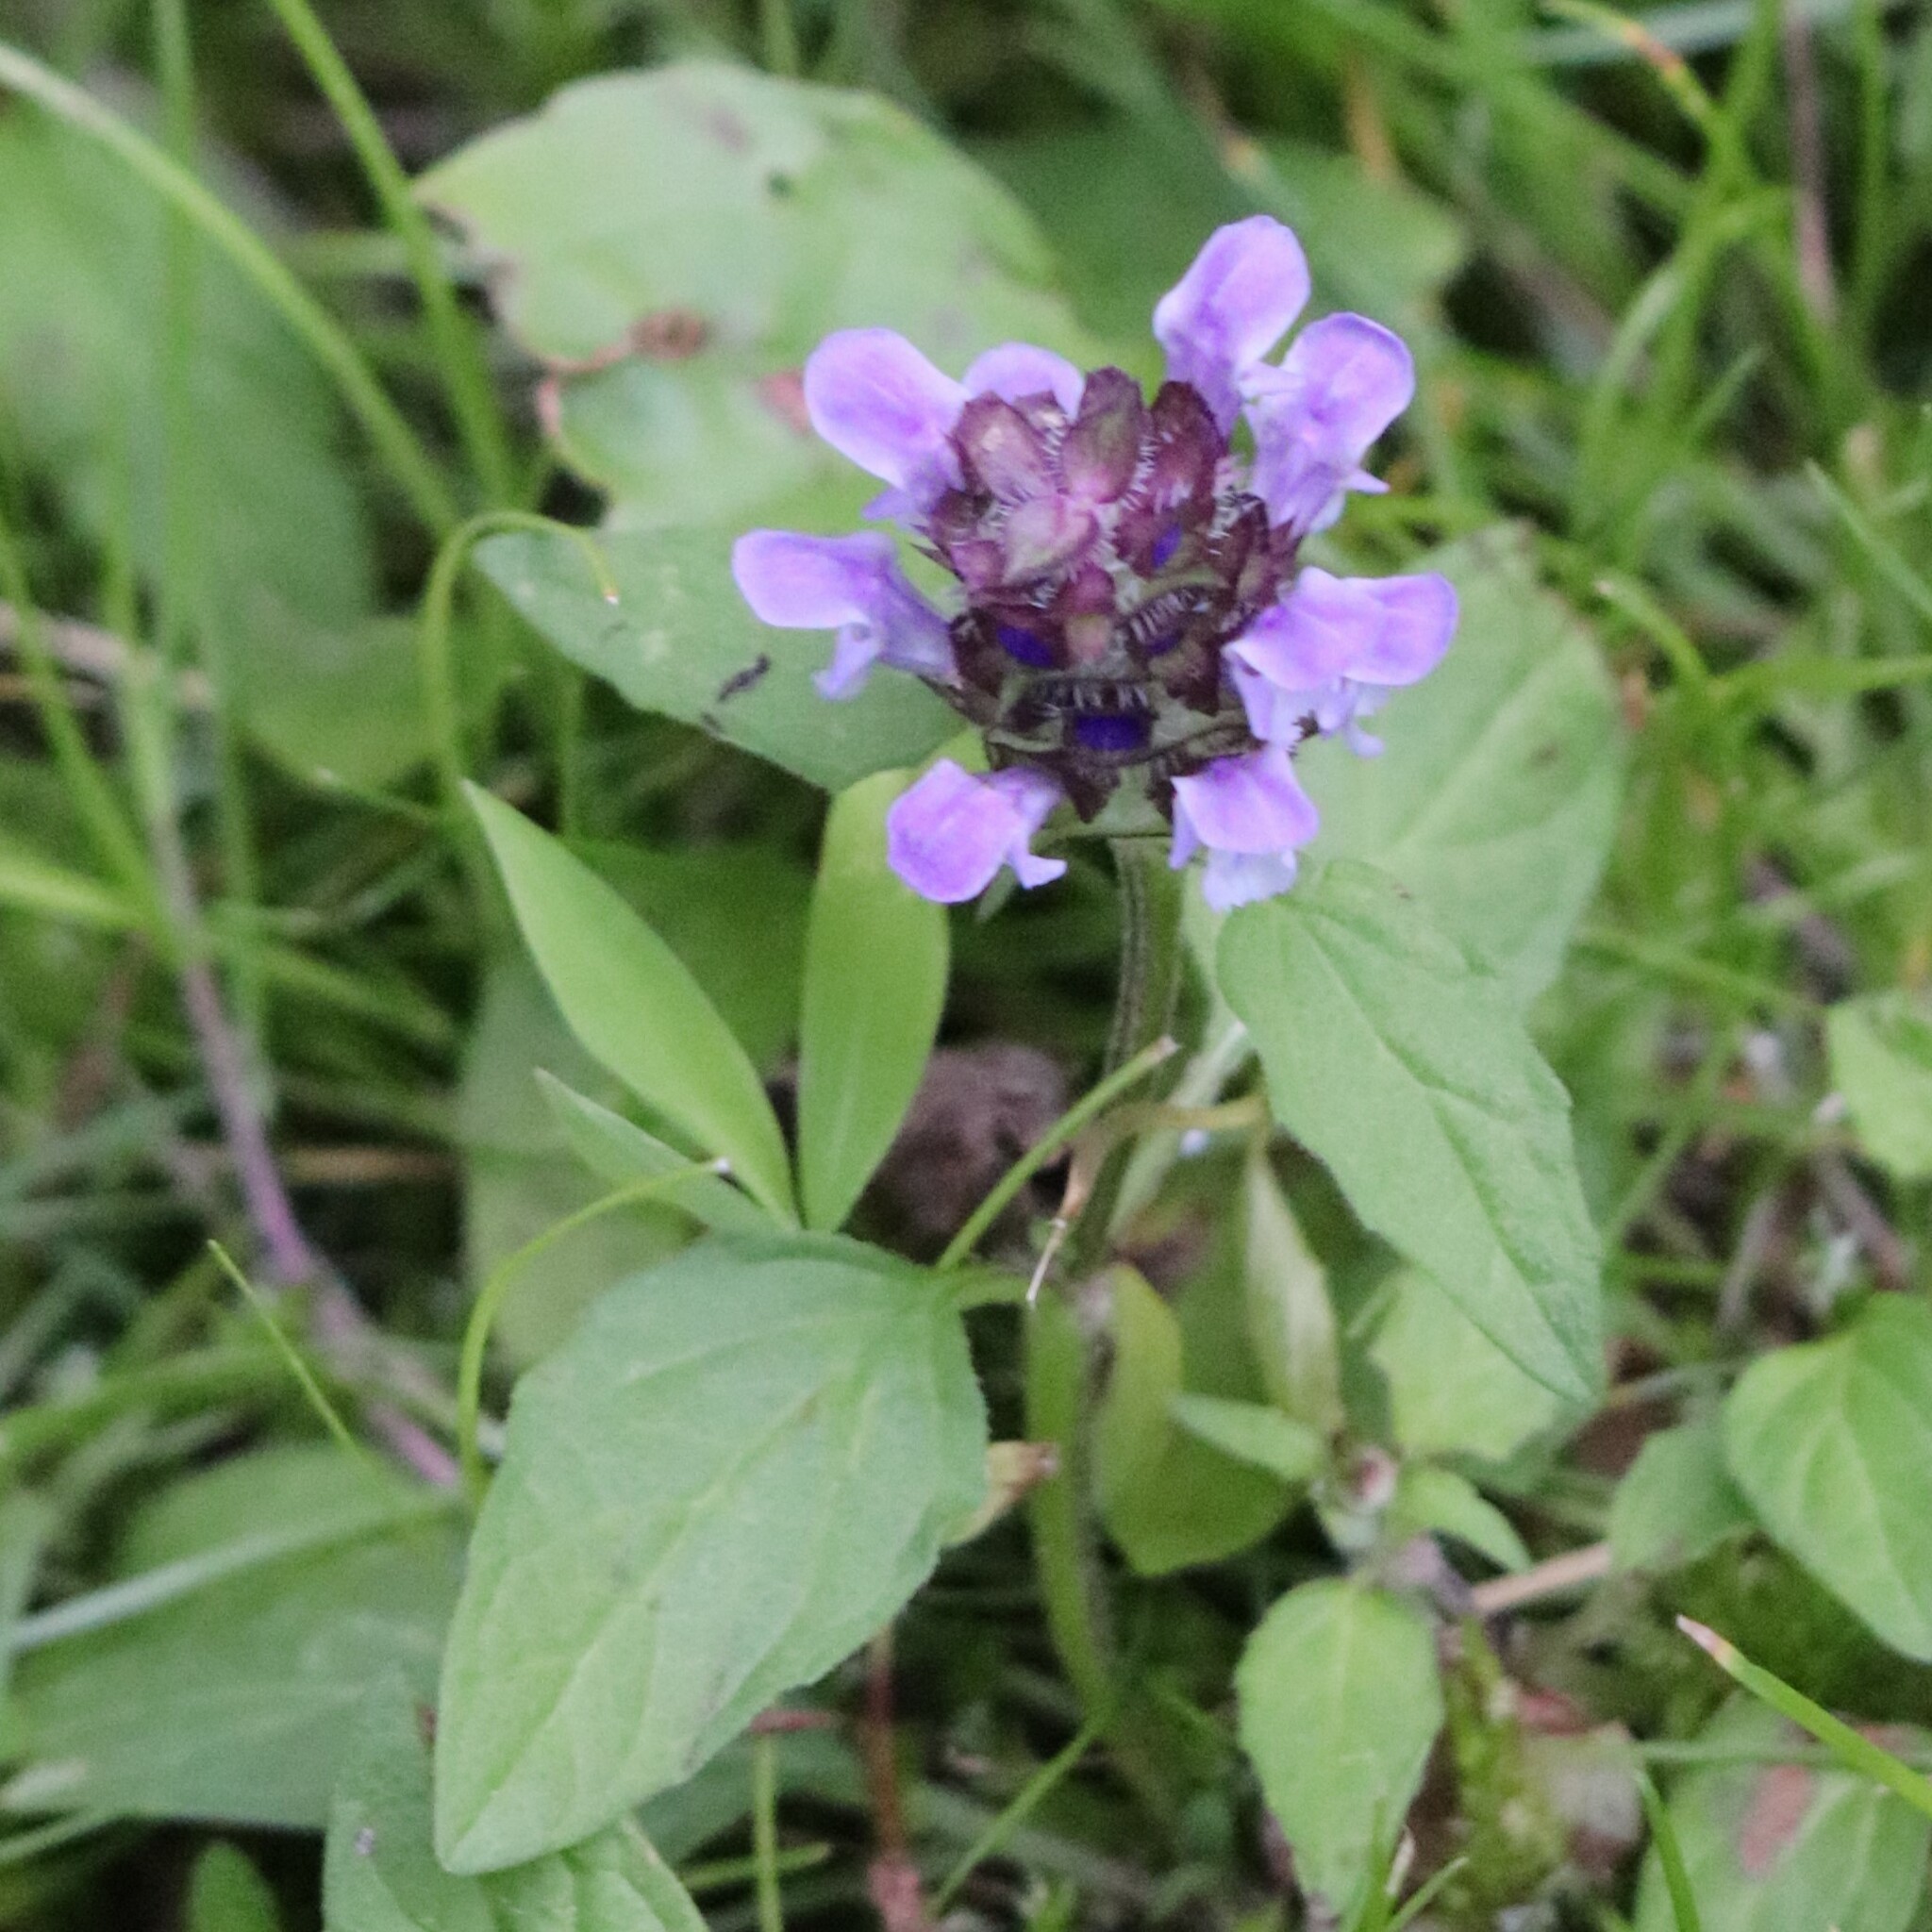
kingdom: Plantae
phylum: Tracheophyta
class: Magnoliopsida
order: Lamiales
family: Lamiaceae
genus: Prunella
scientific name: Prunella vulgaris
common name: Heal-all
